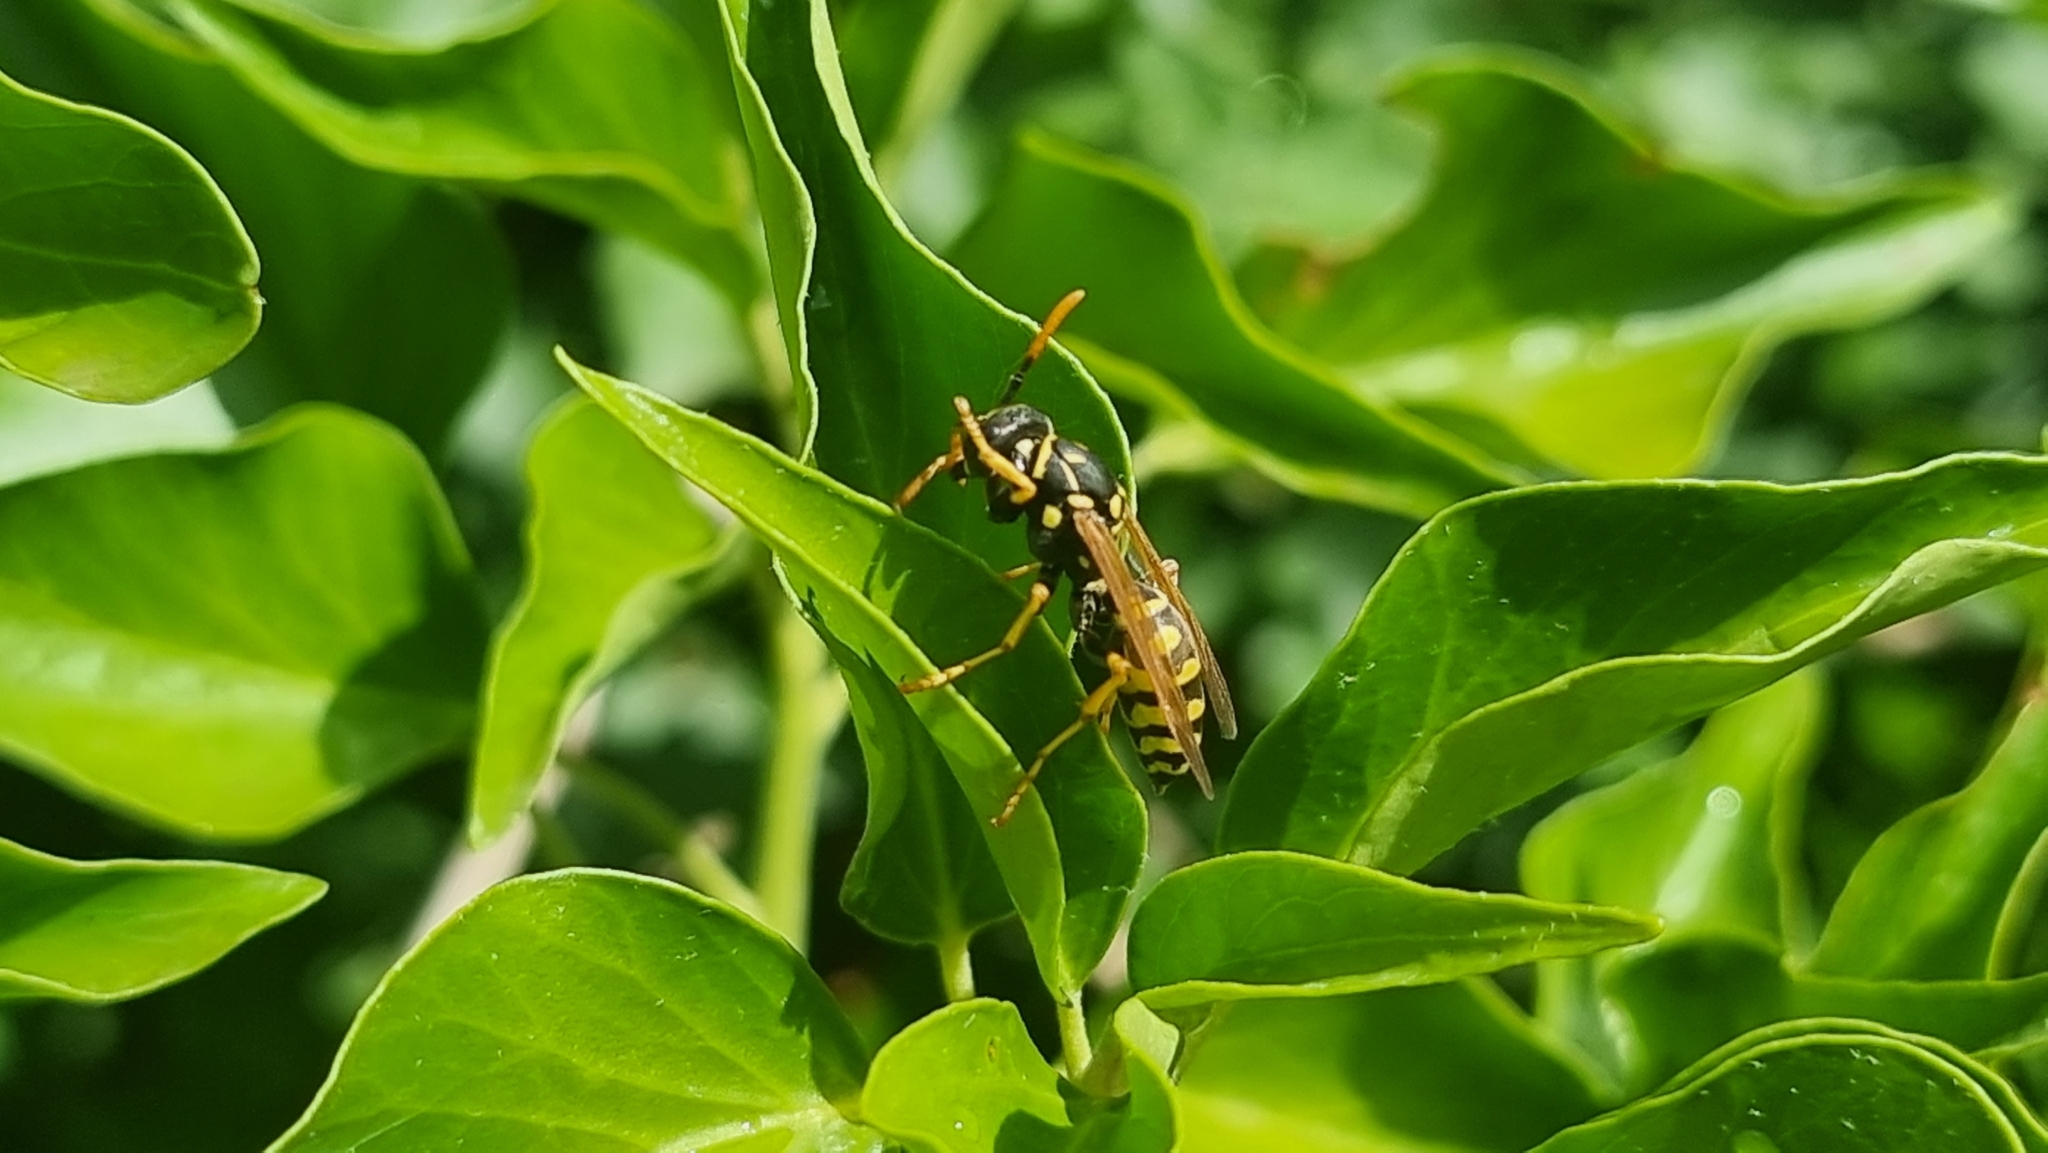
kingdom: Animalia
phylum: Arthropoda
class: Insecta
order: Hymenoptera
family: Eumenidae
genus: Polistes
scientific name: Polistes dominula
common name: Paper wasp
